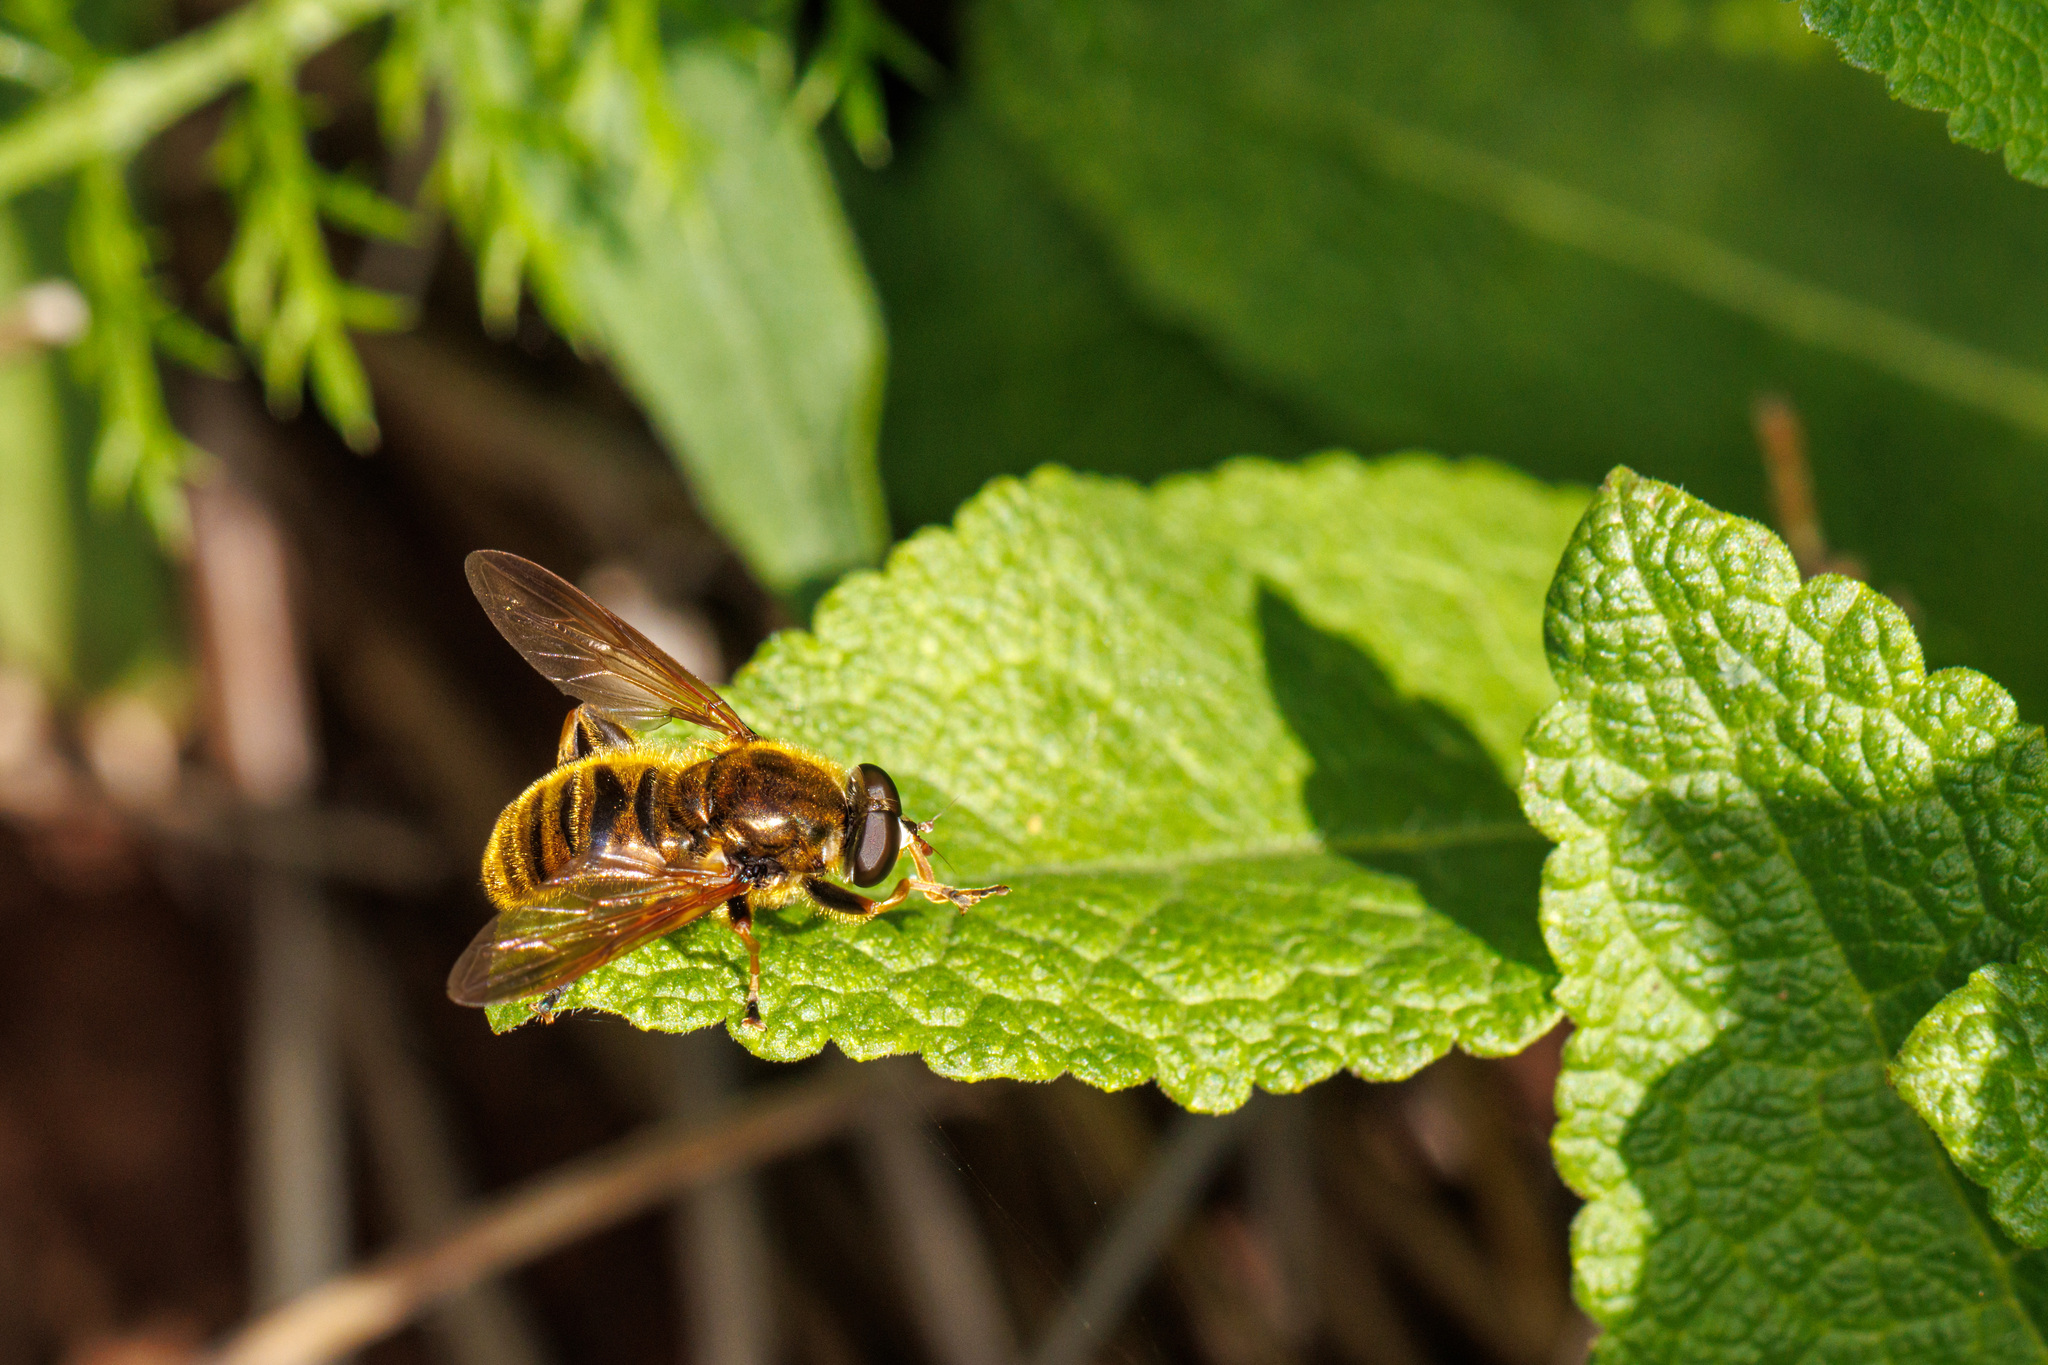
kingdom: Animalia
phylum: Arthropoda
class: Insecta
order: Diptera
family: Syrphidae
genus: Hadromyia
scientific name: Hadromyia crawfordi
